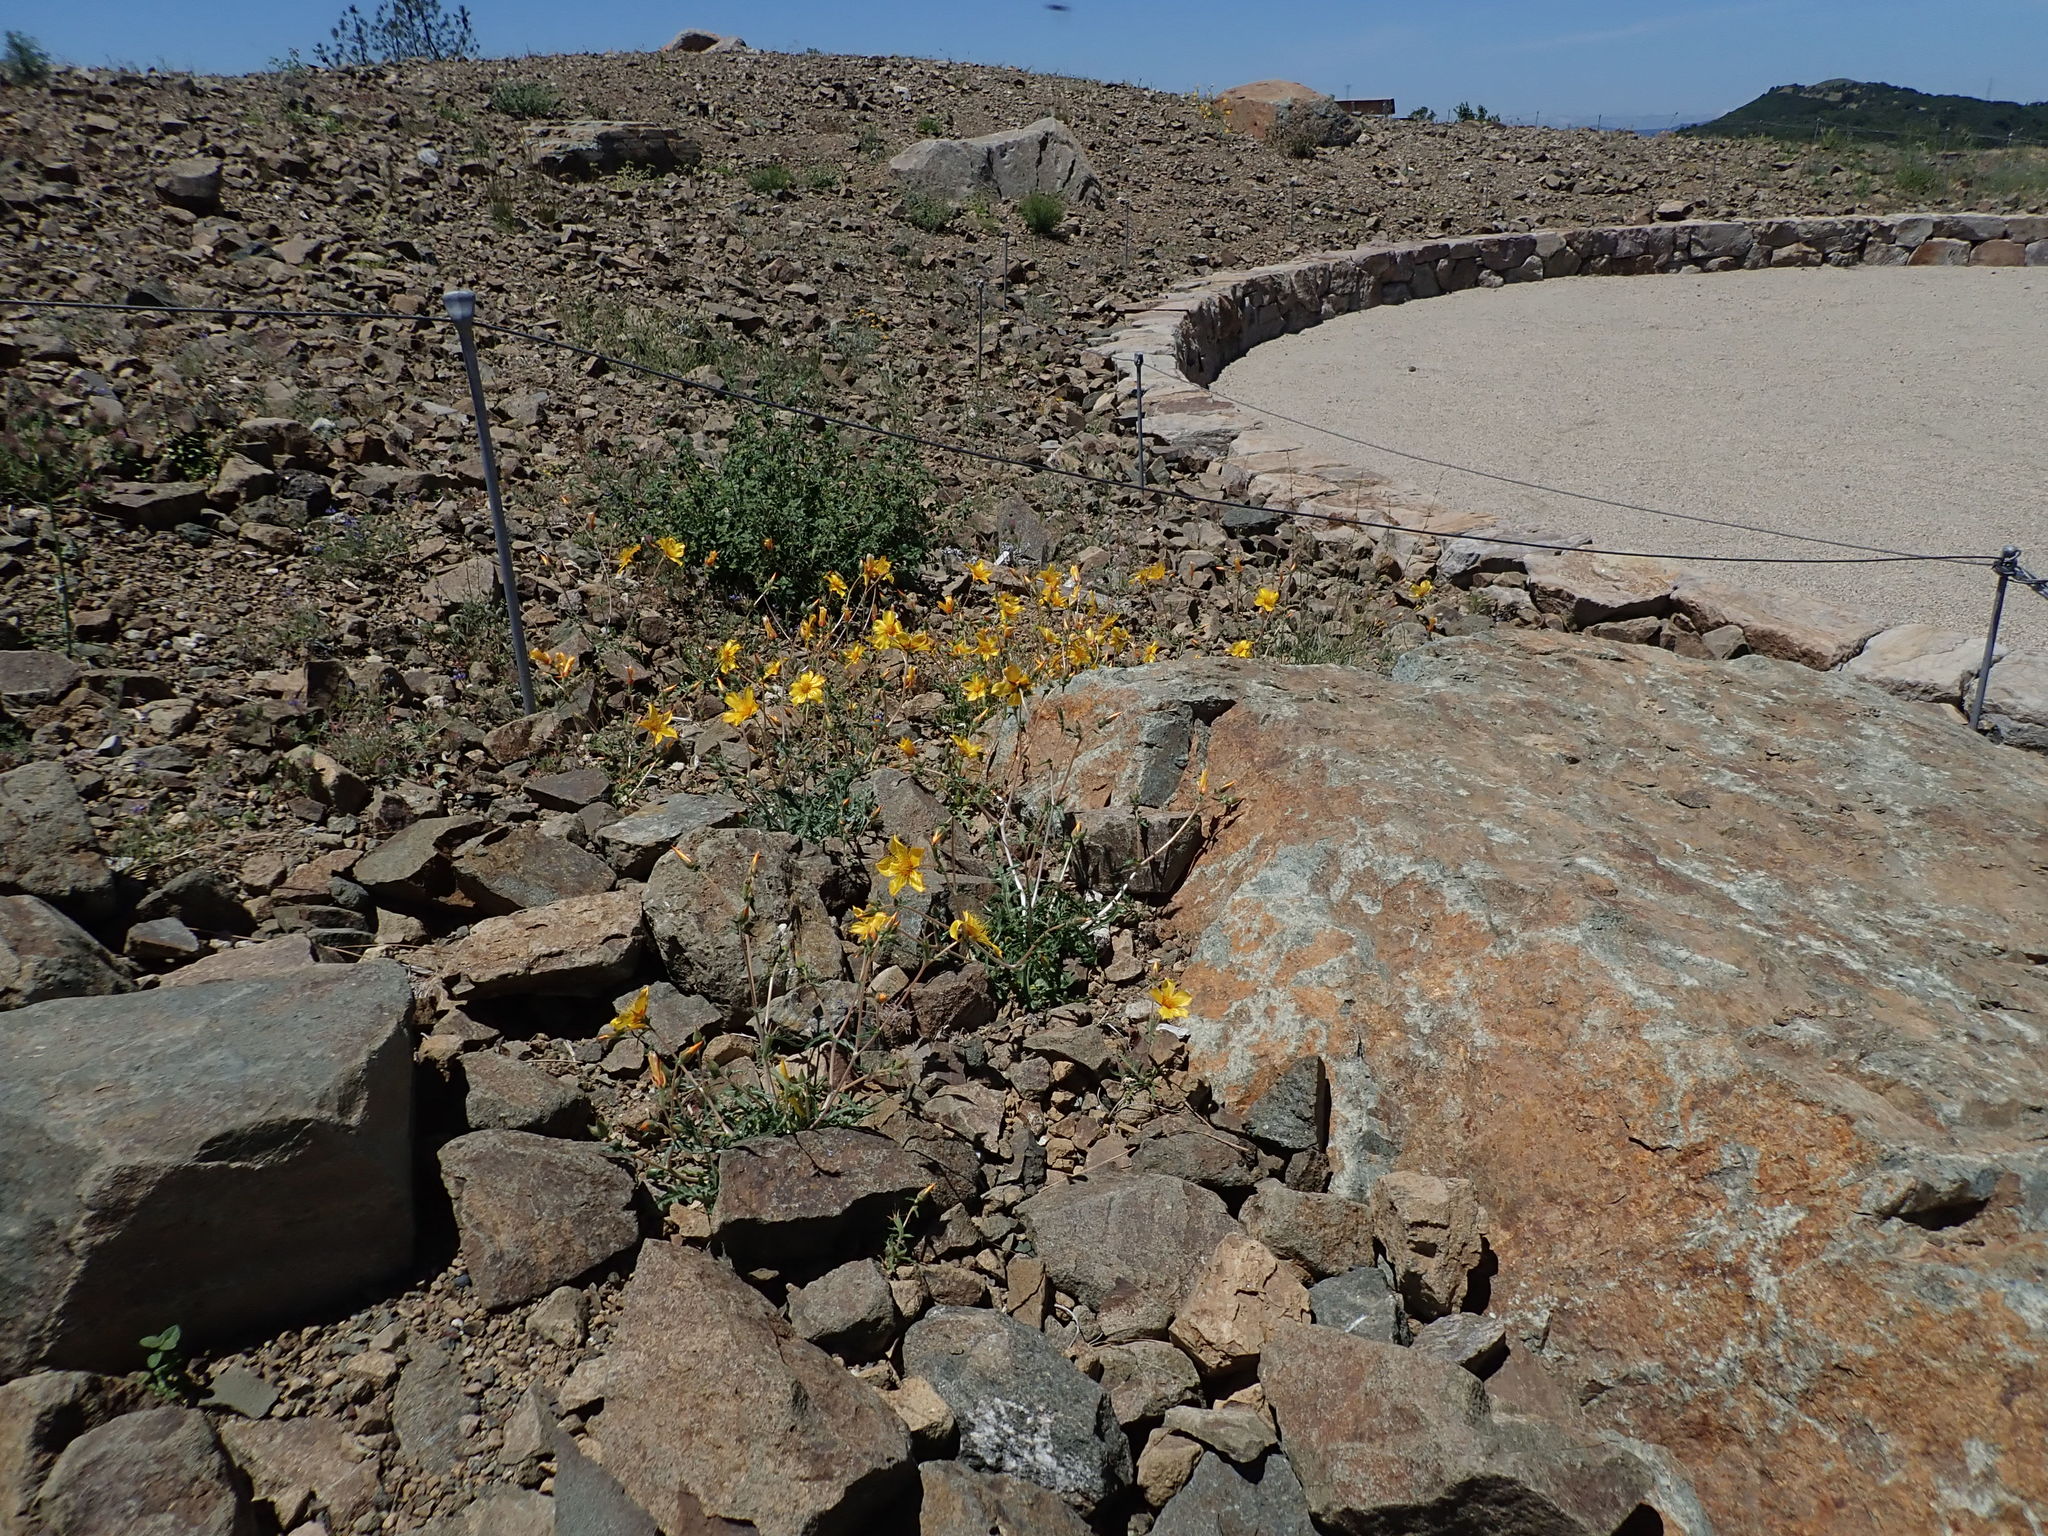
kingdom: Plantae
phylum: Tracheophyta
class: Magnoliopsida
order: Cornales
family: Loasaceae
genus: Mentzelia
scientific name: Mentzelia lindleyi
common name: Golden bartonia
